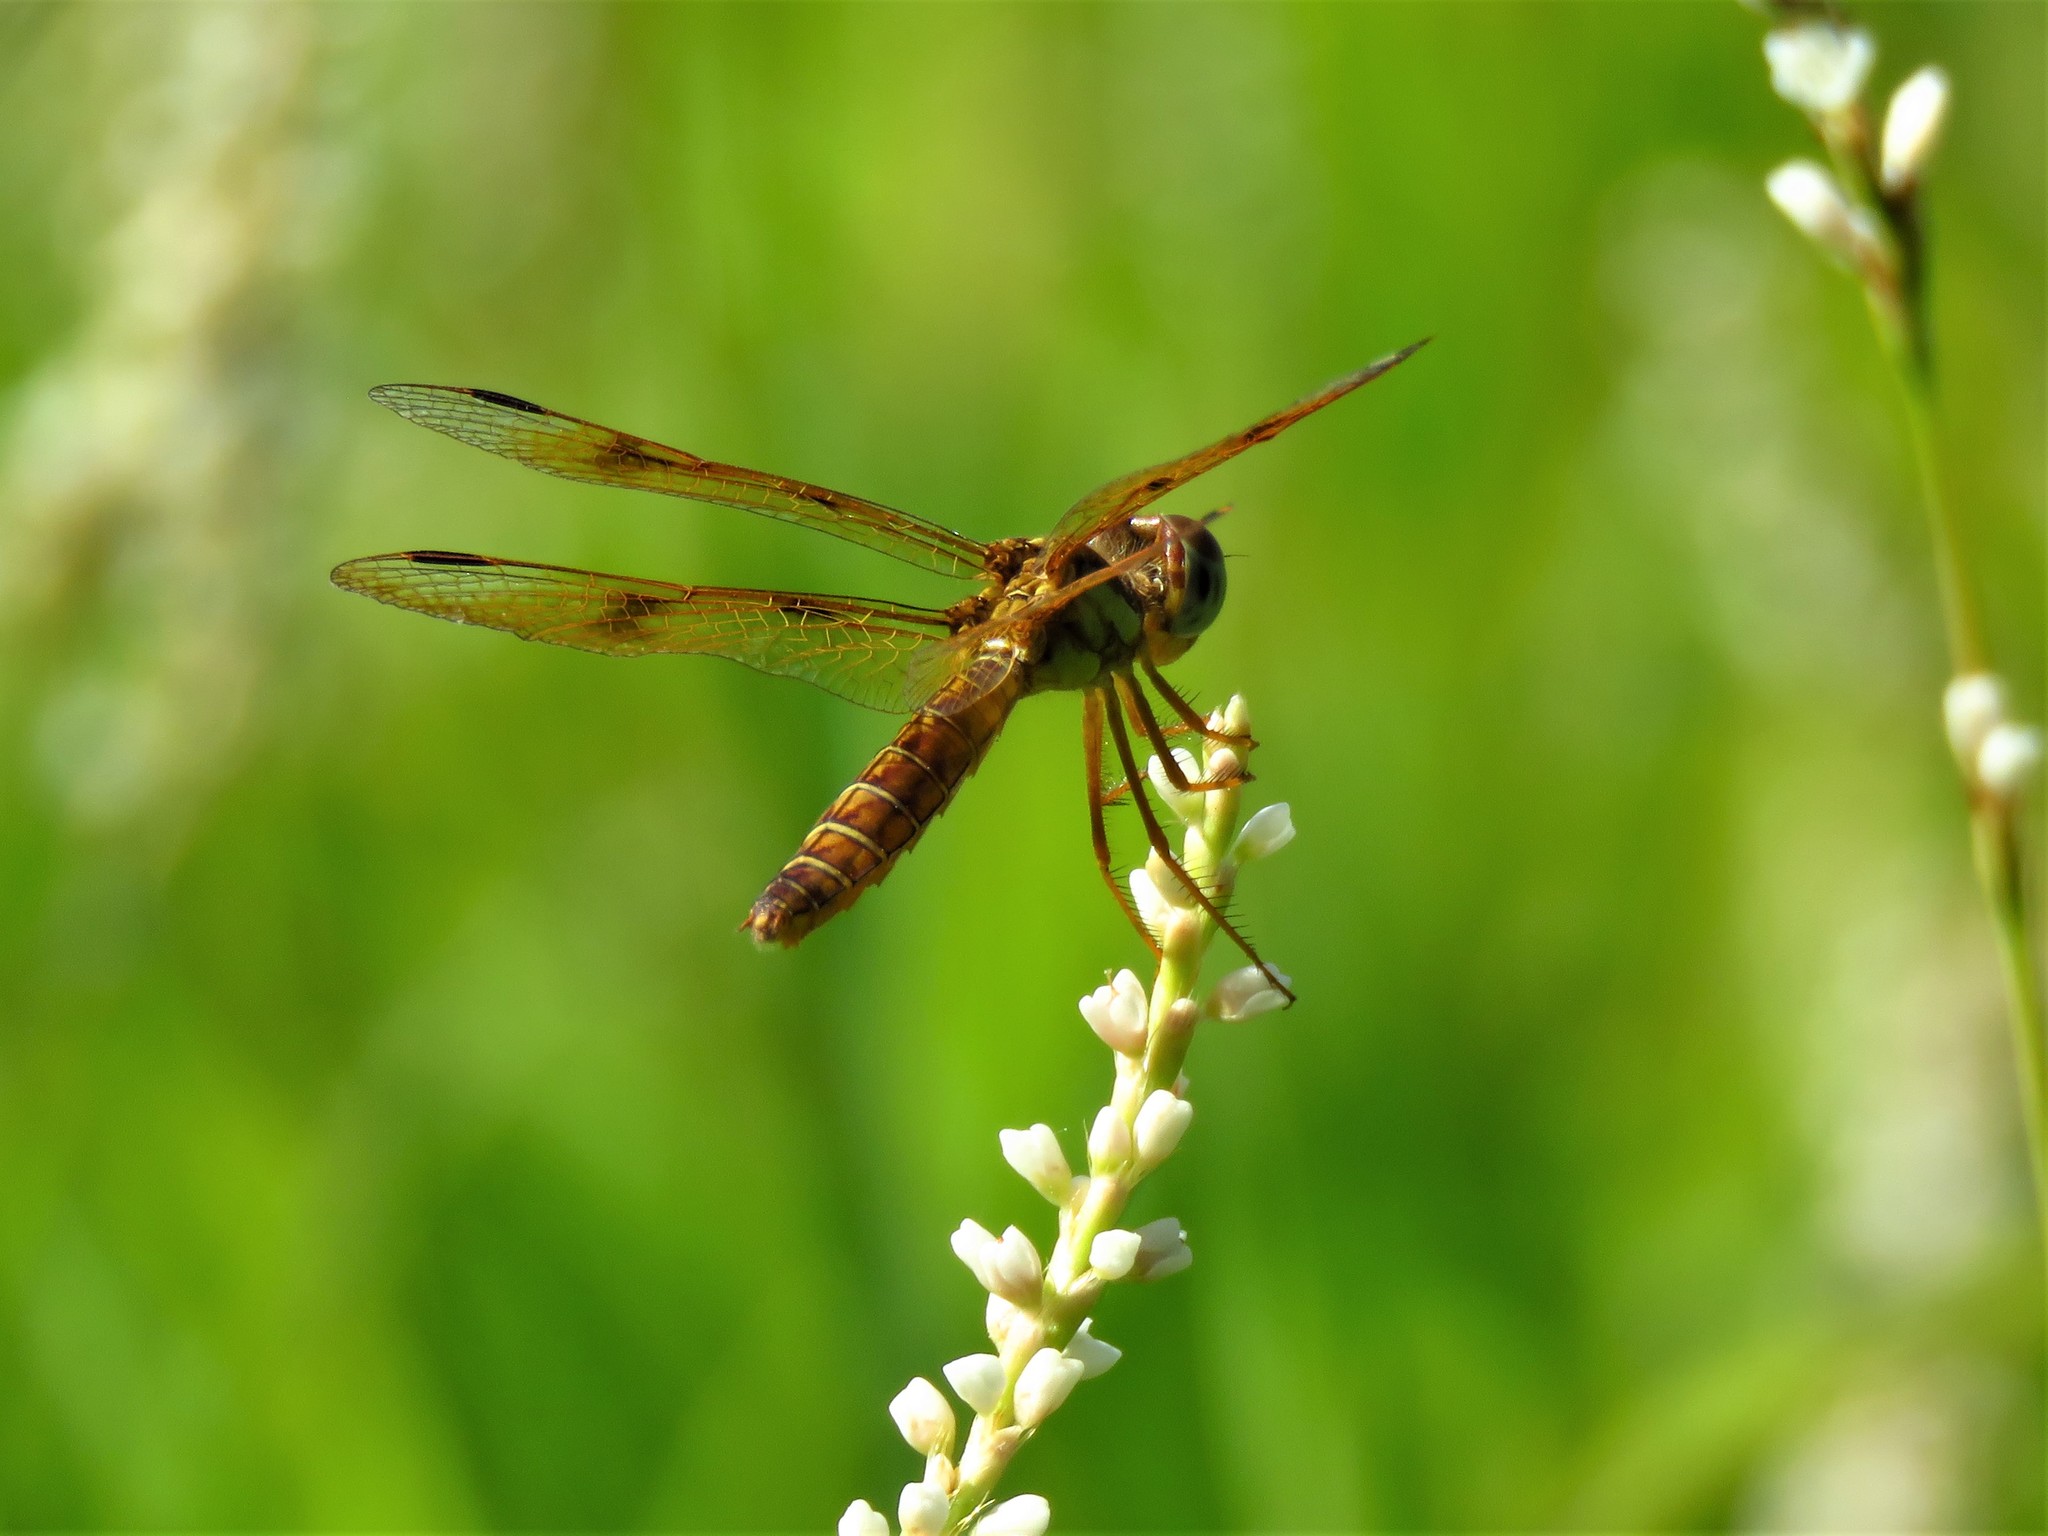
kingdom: Animalia
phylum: Arthropoda
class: Insecta
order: Odonata
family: Libellulidae
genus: Perithemis
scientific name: Perithemis tenera
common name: Eastern amberwing
